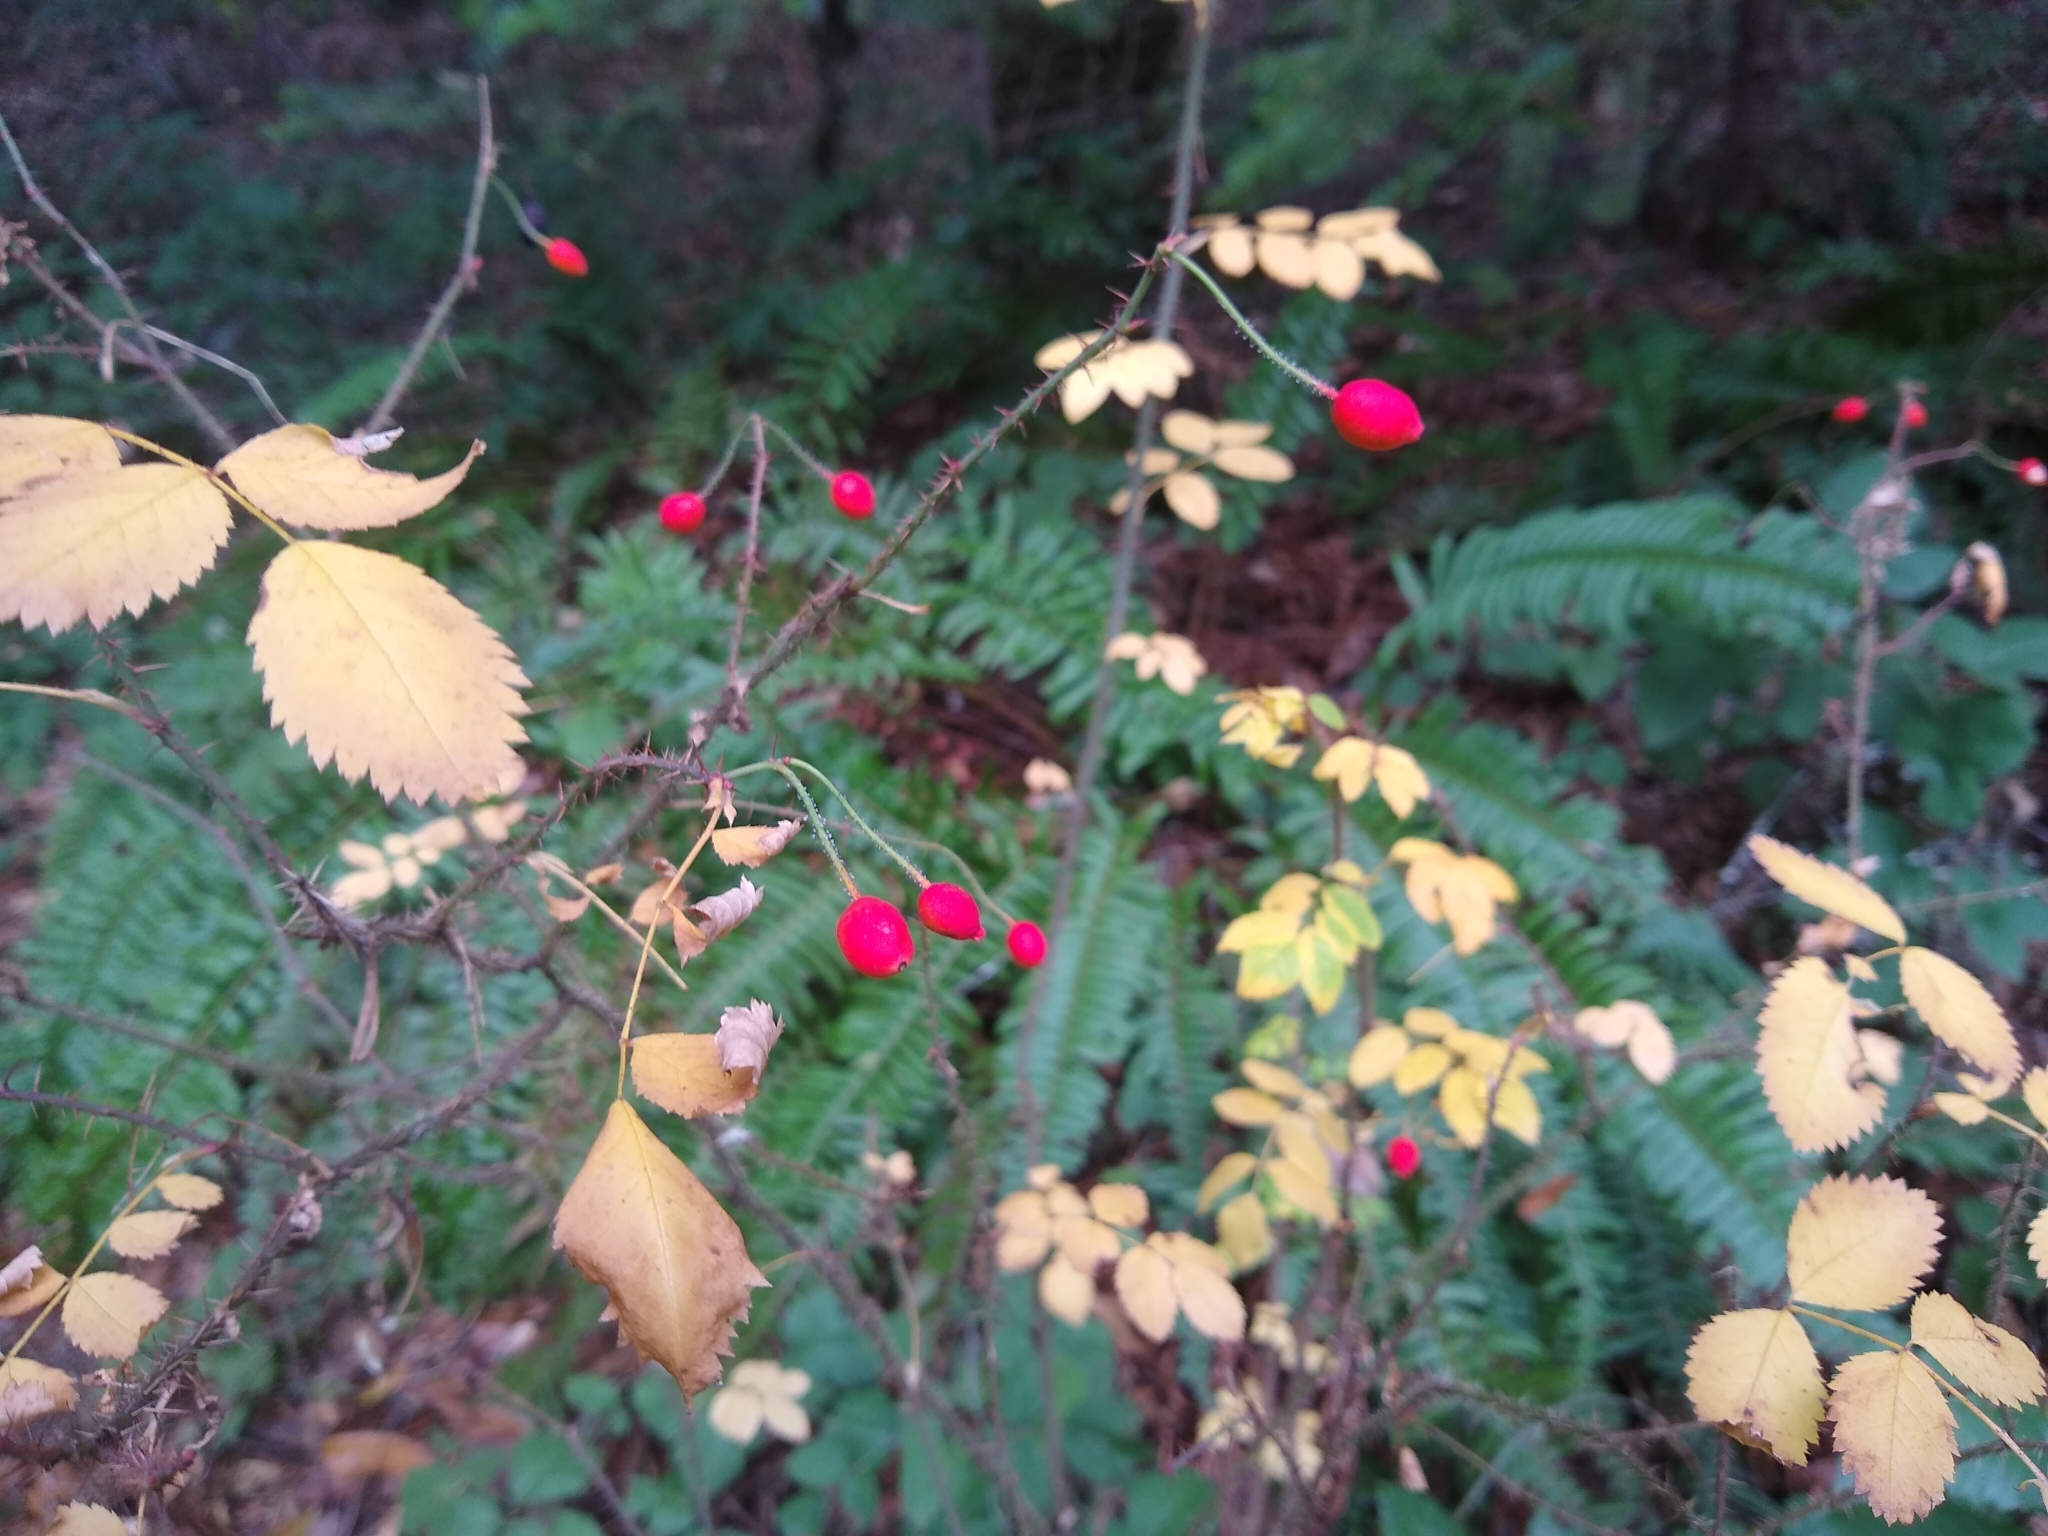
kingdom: Plantae
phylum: Tracheophyta
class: Magnoliopsida
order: Rosales
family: Rosaceae
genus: Rosa
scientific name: Rosa gymnocarpa
